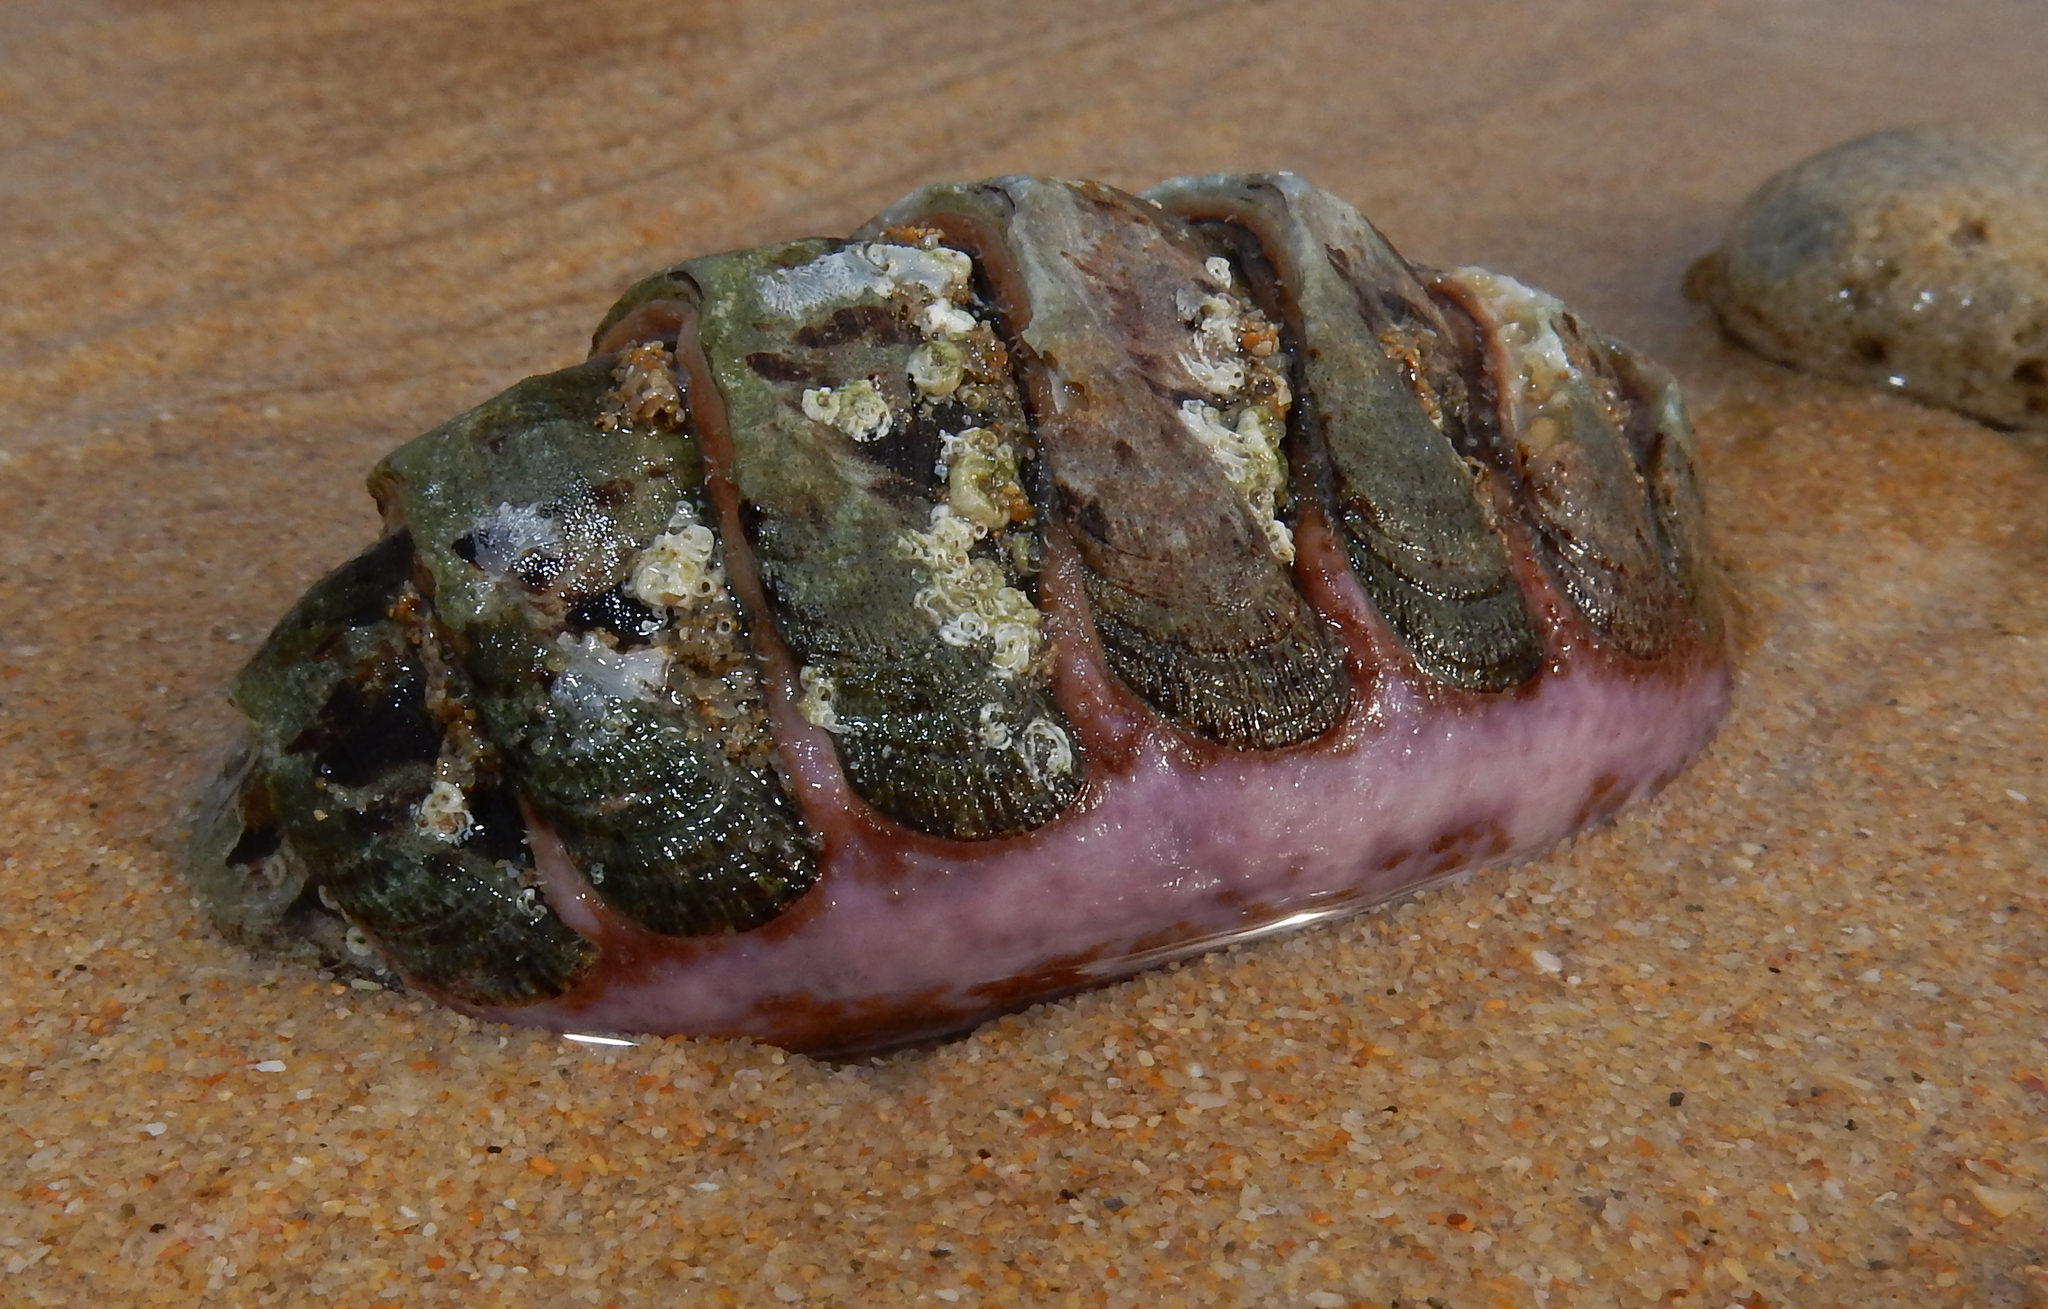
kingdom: Animalia
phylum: Mollusca
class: Polyplacophora
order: Chitonida
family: Chaetopleuridae
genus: Dinoplax
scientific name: Dinoplax gigas
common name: Armadillo
